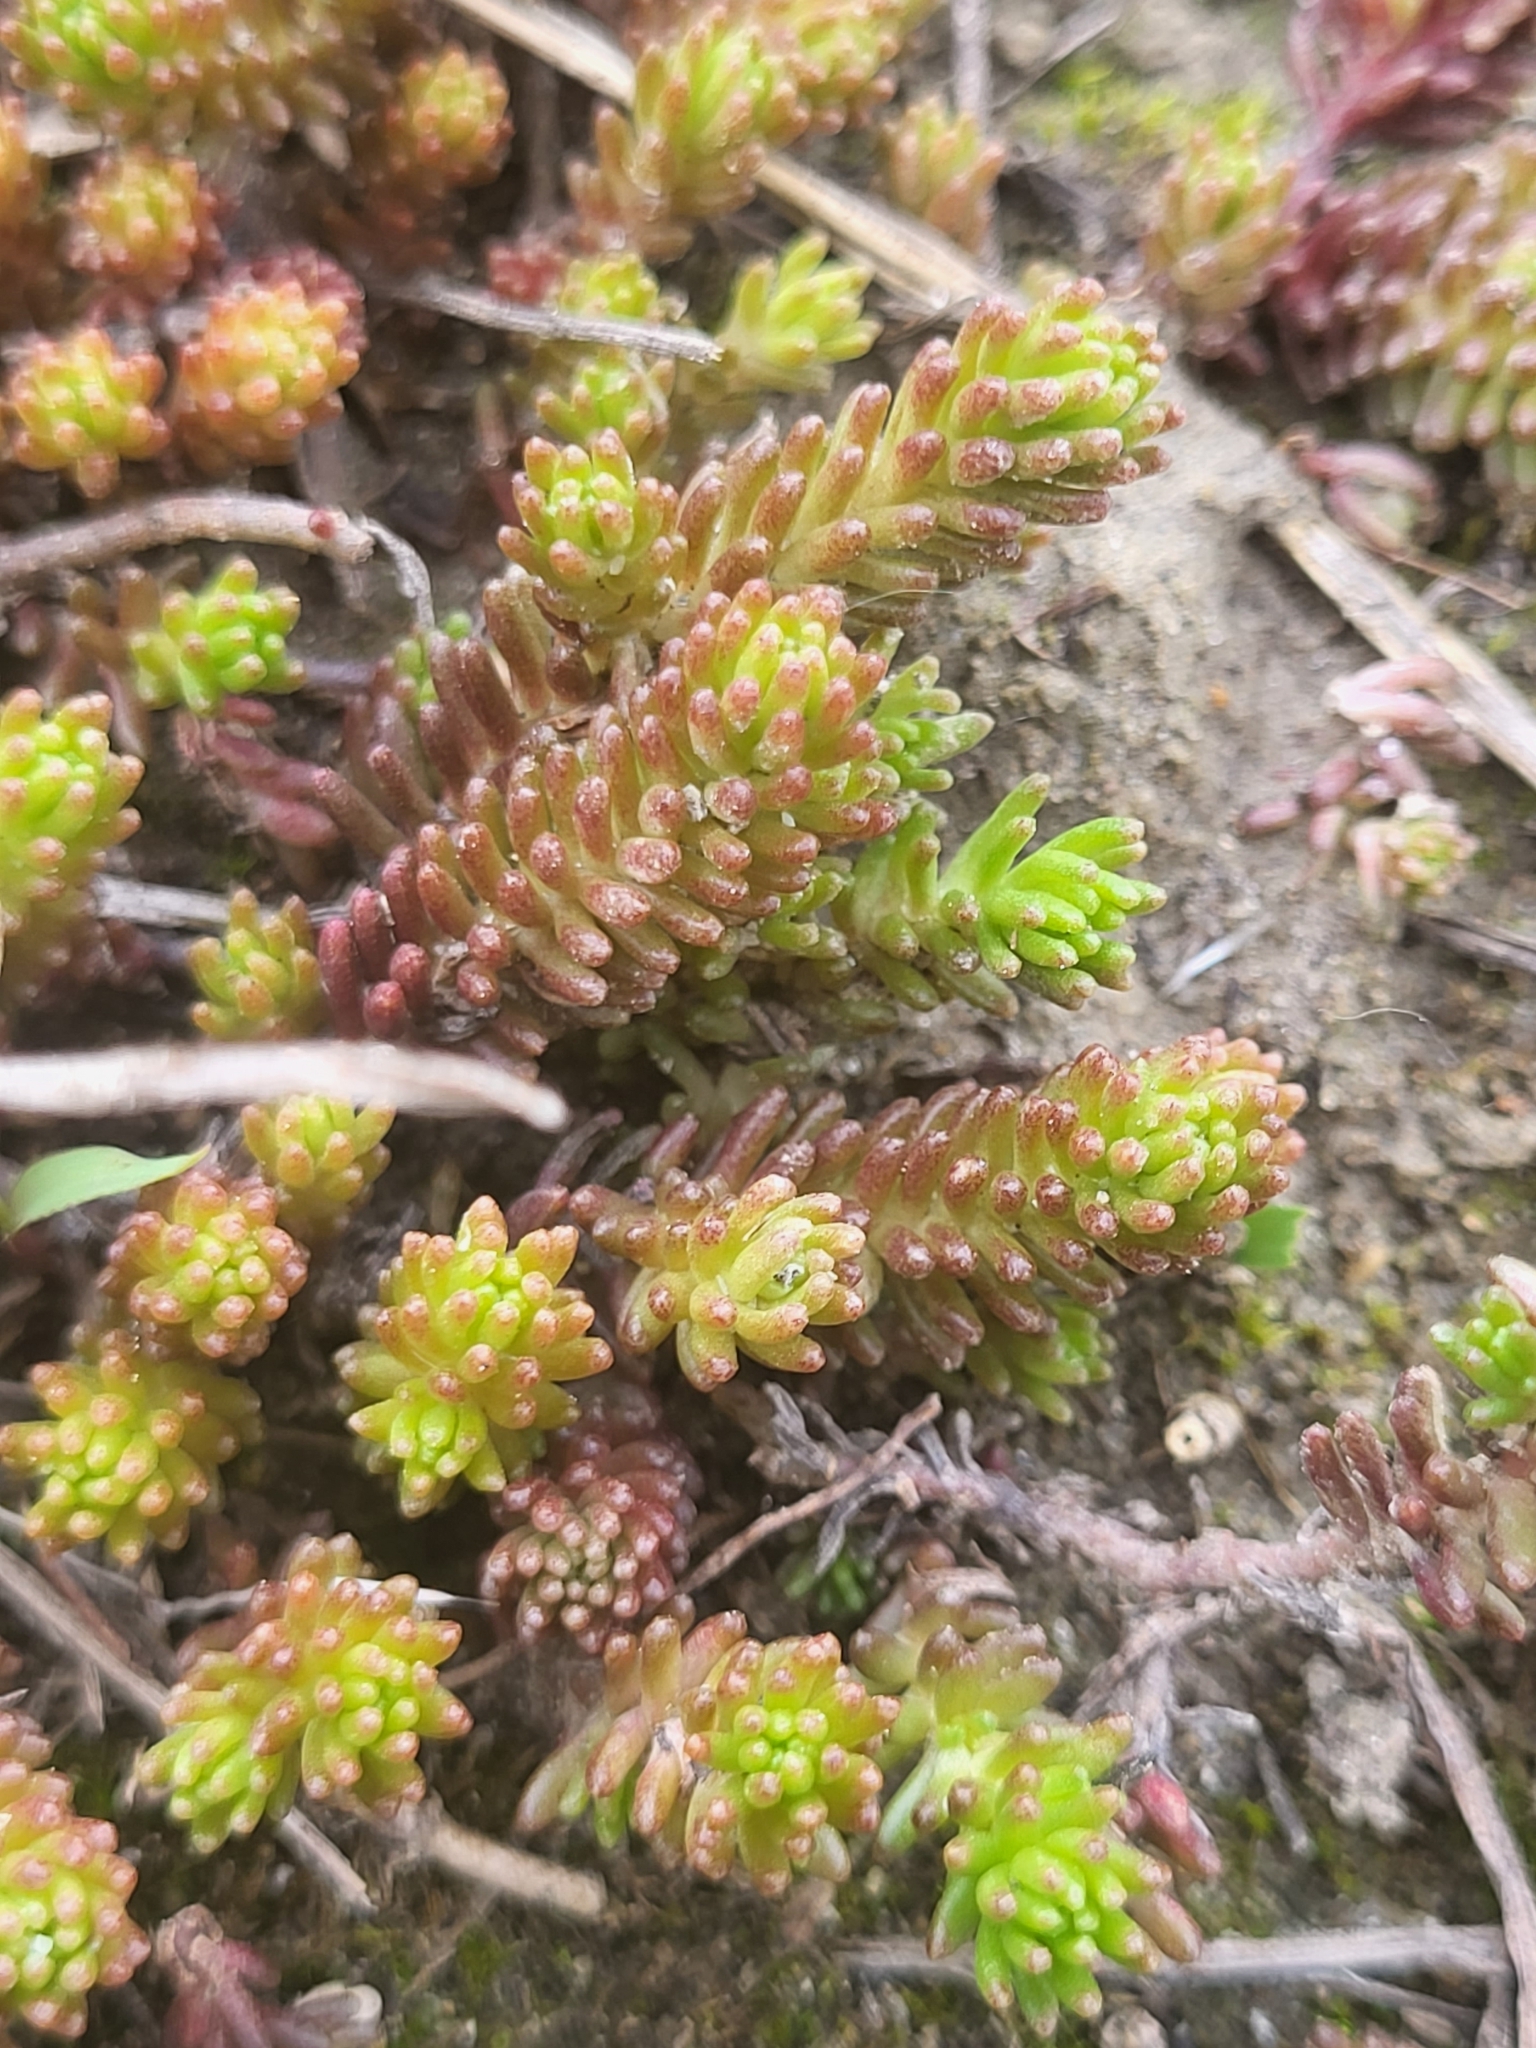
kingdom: Plantae
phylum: Tracheophyta
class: Magnoliopsida
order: Saxifragales
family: Crassulaceae
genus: Sedum
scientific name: Sedum sexangulare
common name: Tasteless stonecrop
